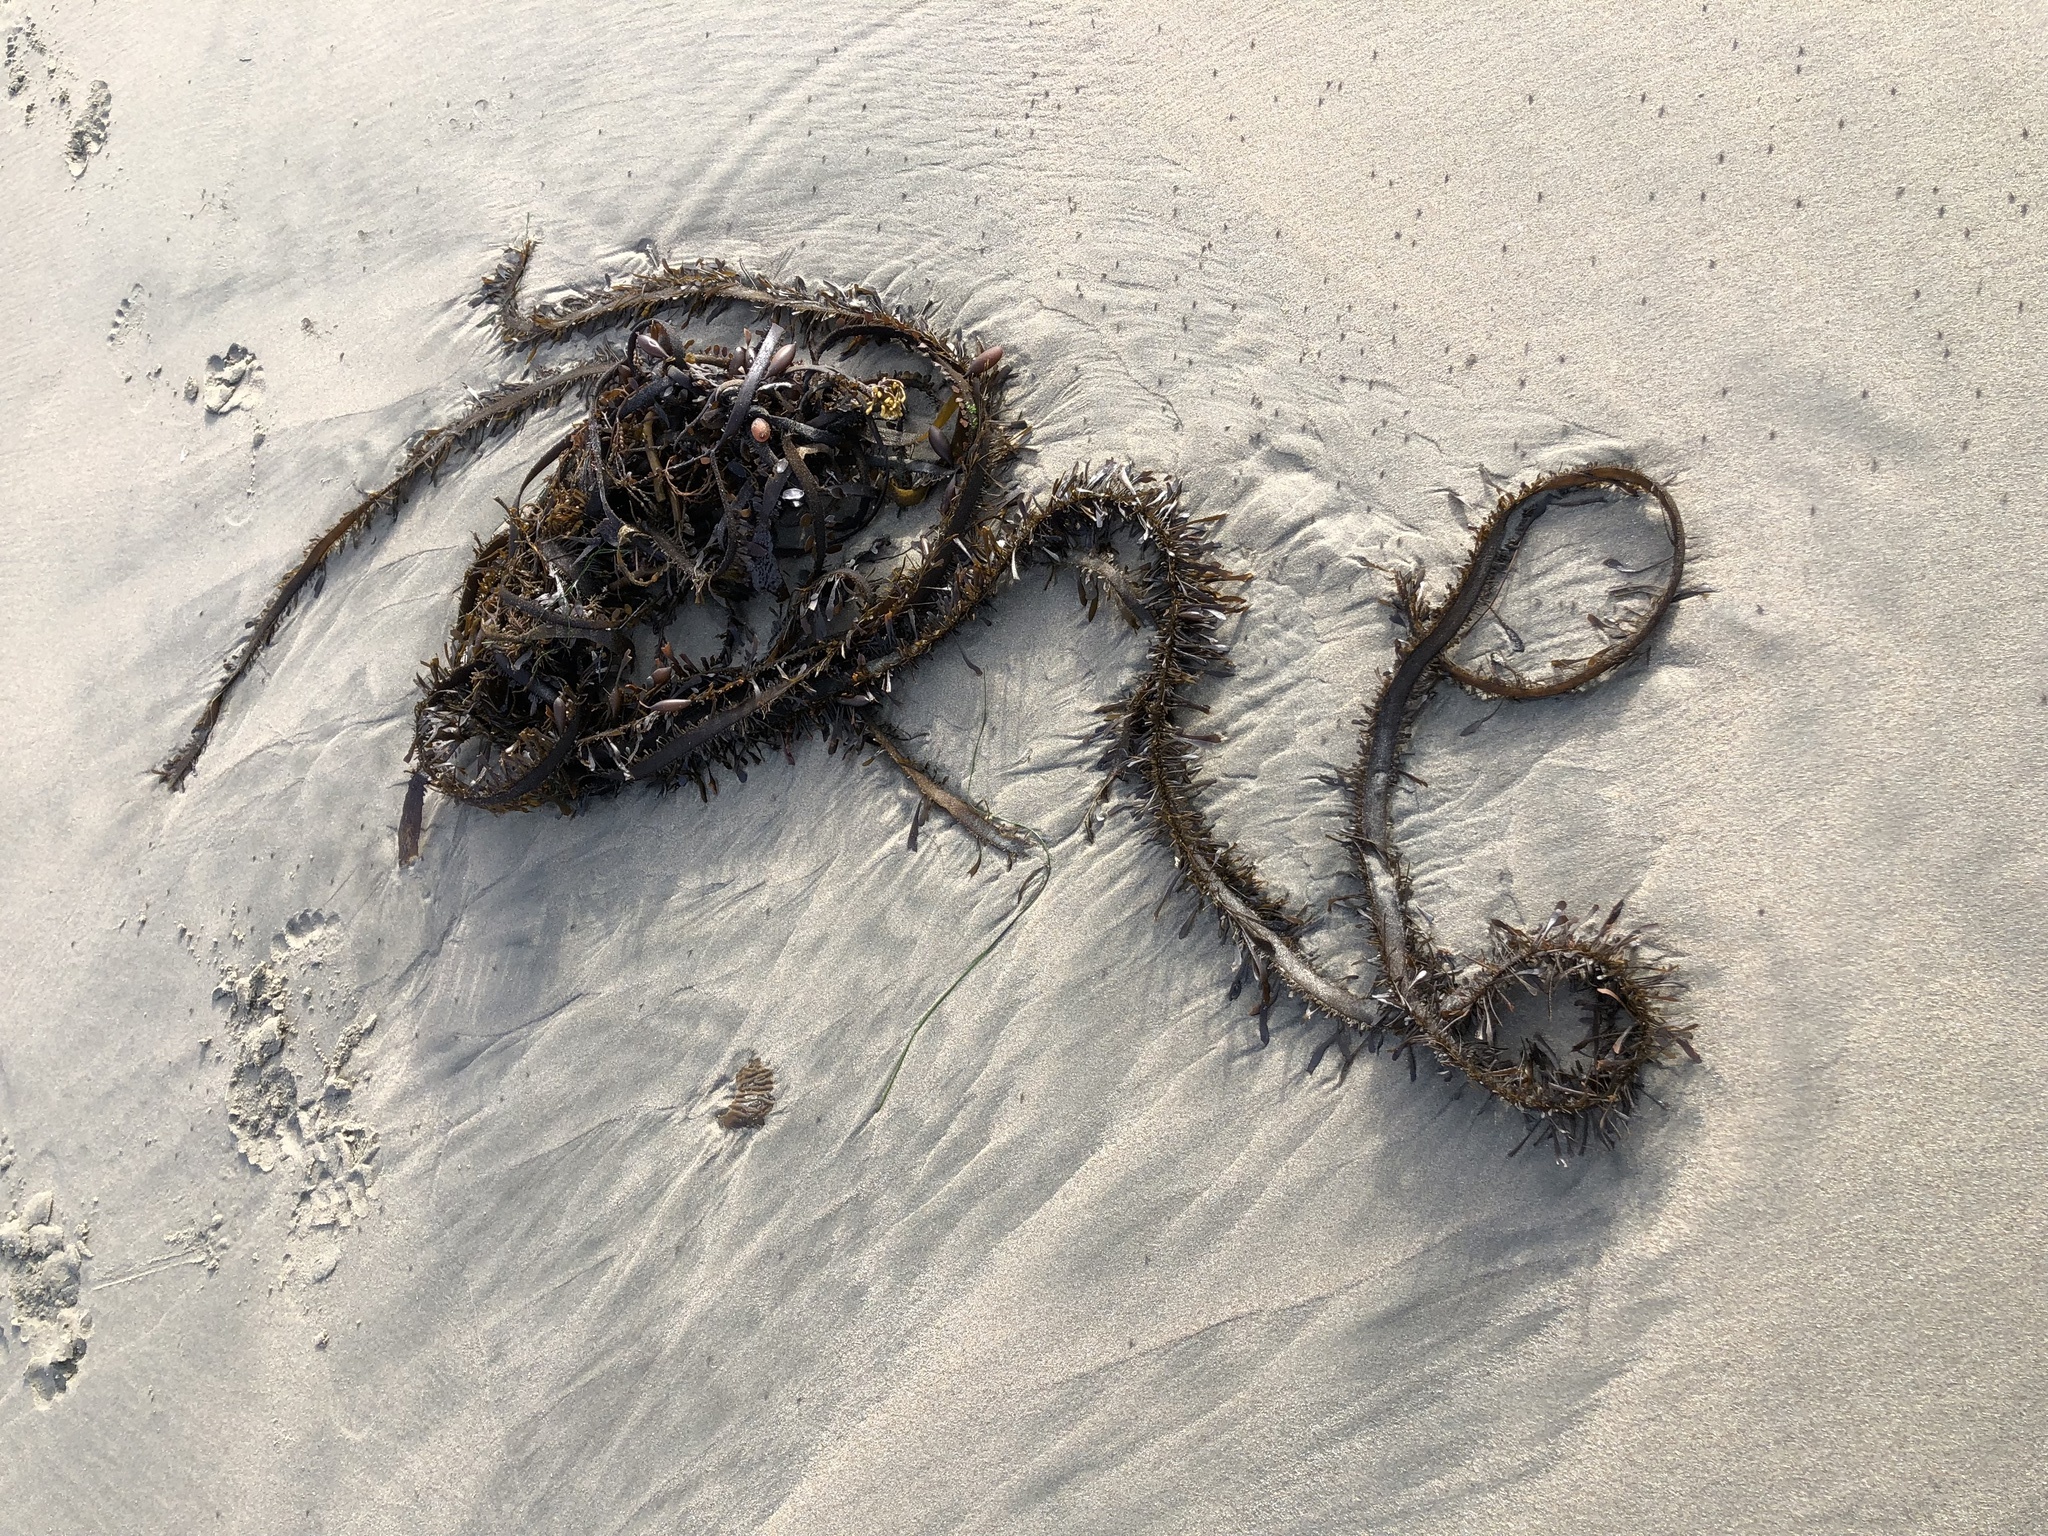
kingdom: Chromista
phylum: Ochrophyta
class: Phaeophyceae
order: Laminariales
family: Lessoniaceae
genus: Egregia
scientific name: Egregia menziesii
